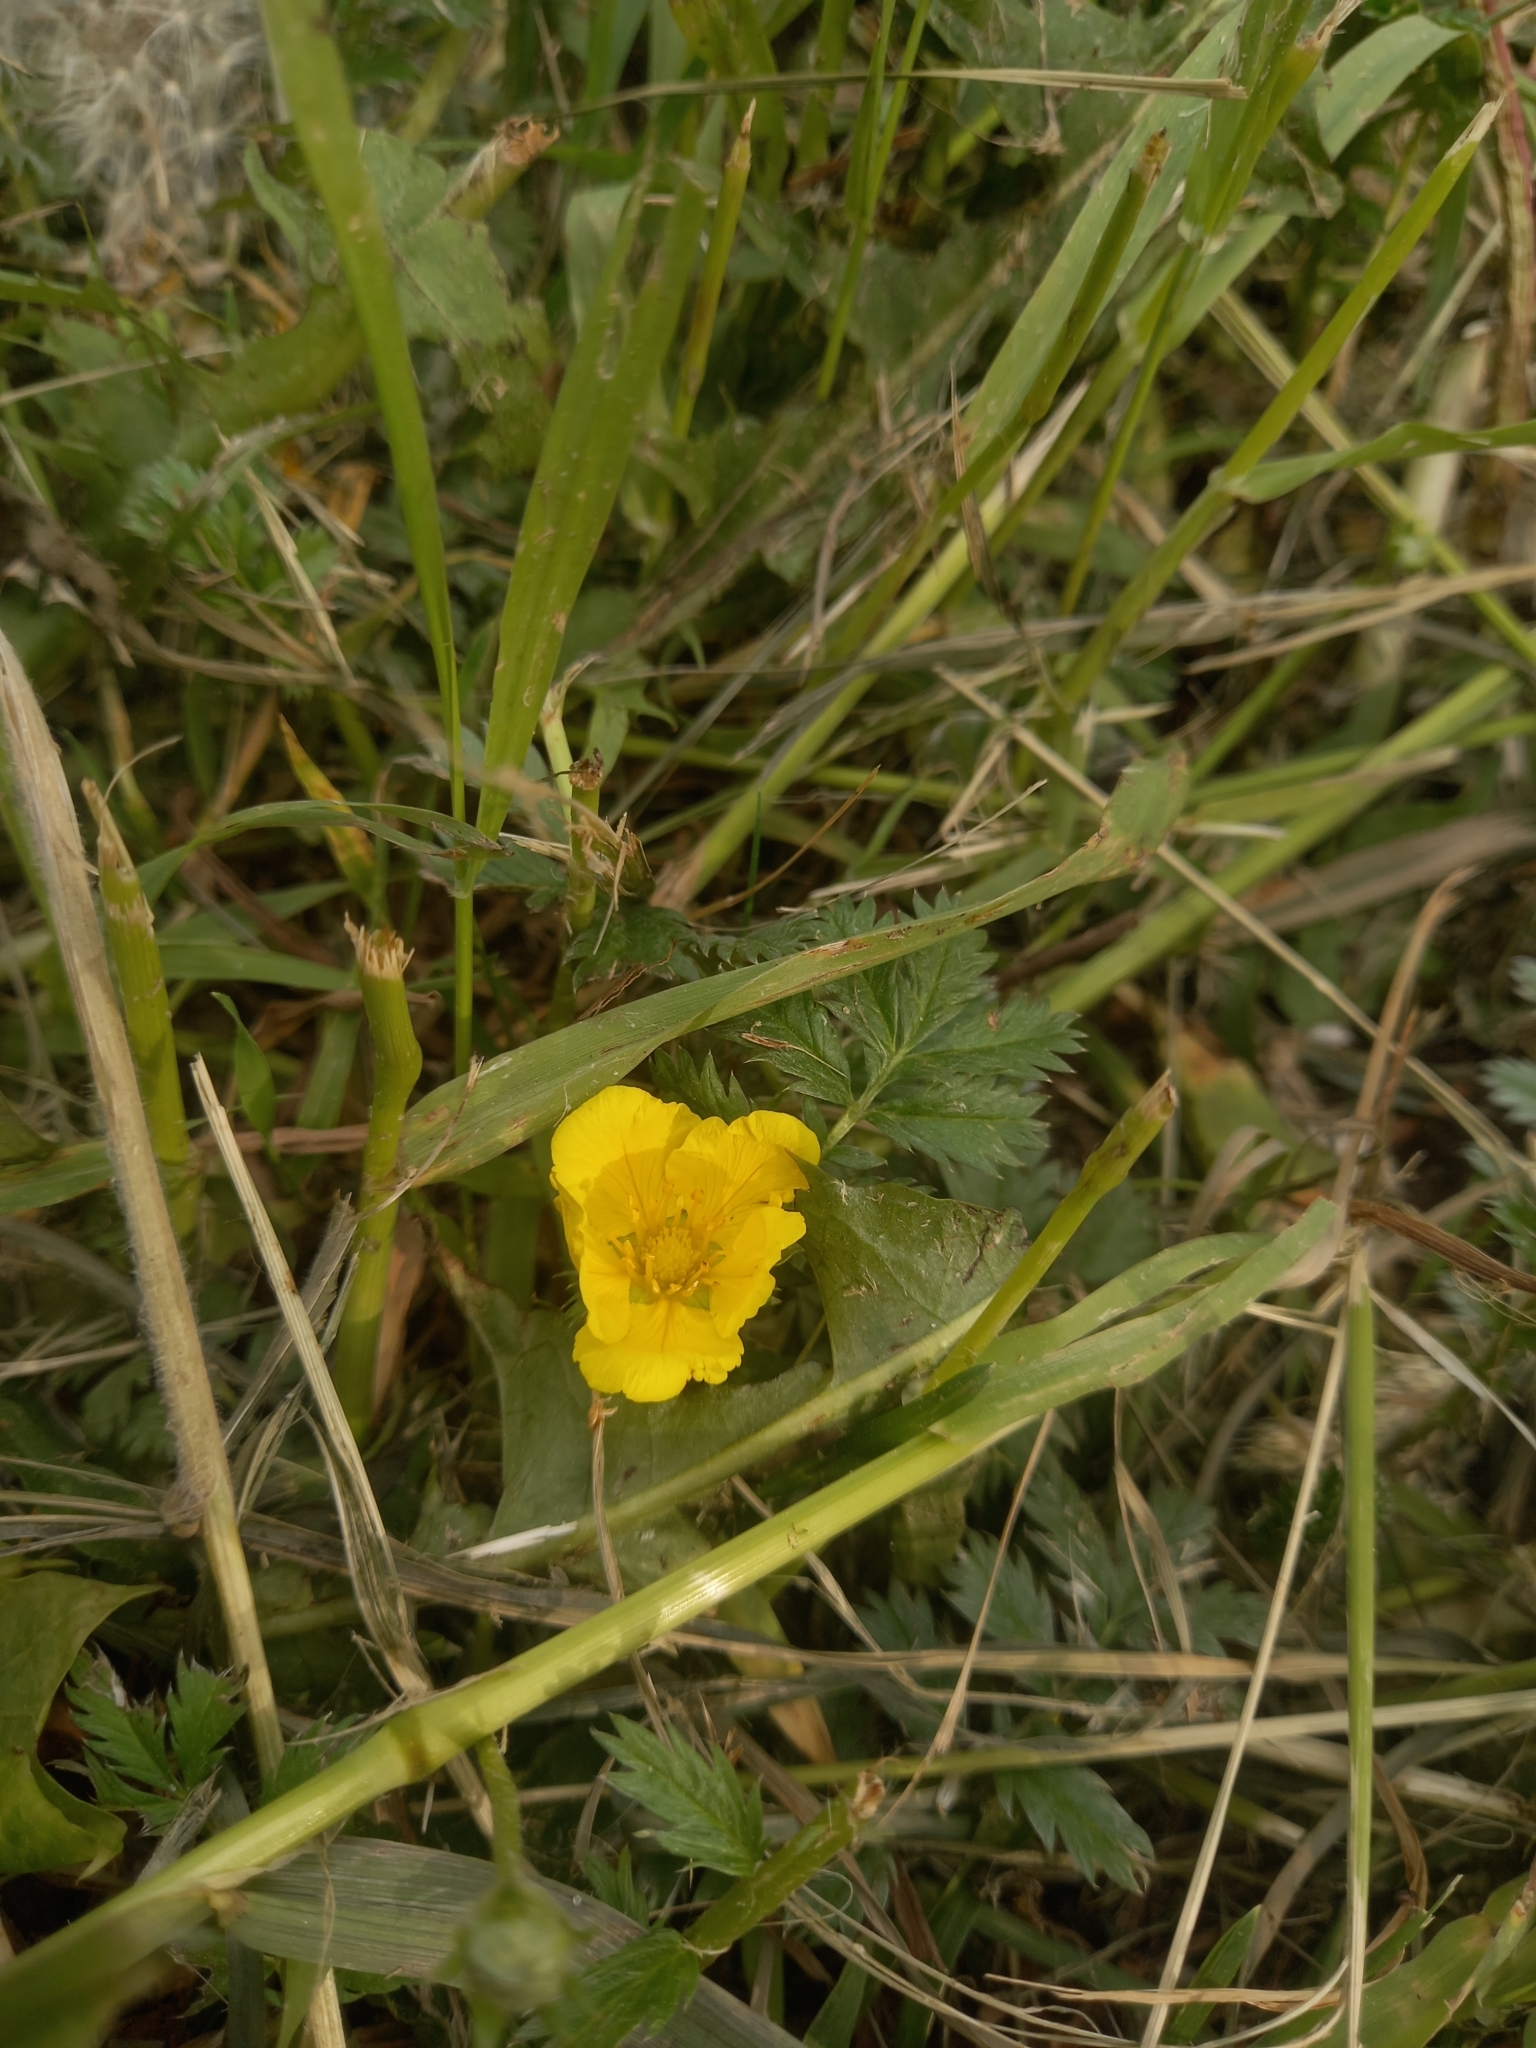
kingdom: Plantae
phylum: Tracheophyta
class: Magnoliopsida
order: Rosales
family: Rosaceae
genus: Argentina
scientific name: Argentina anserina
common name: Common silverweed
